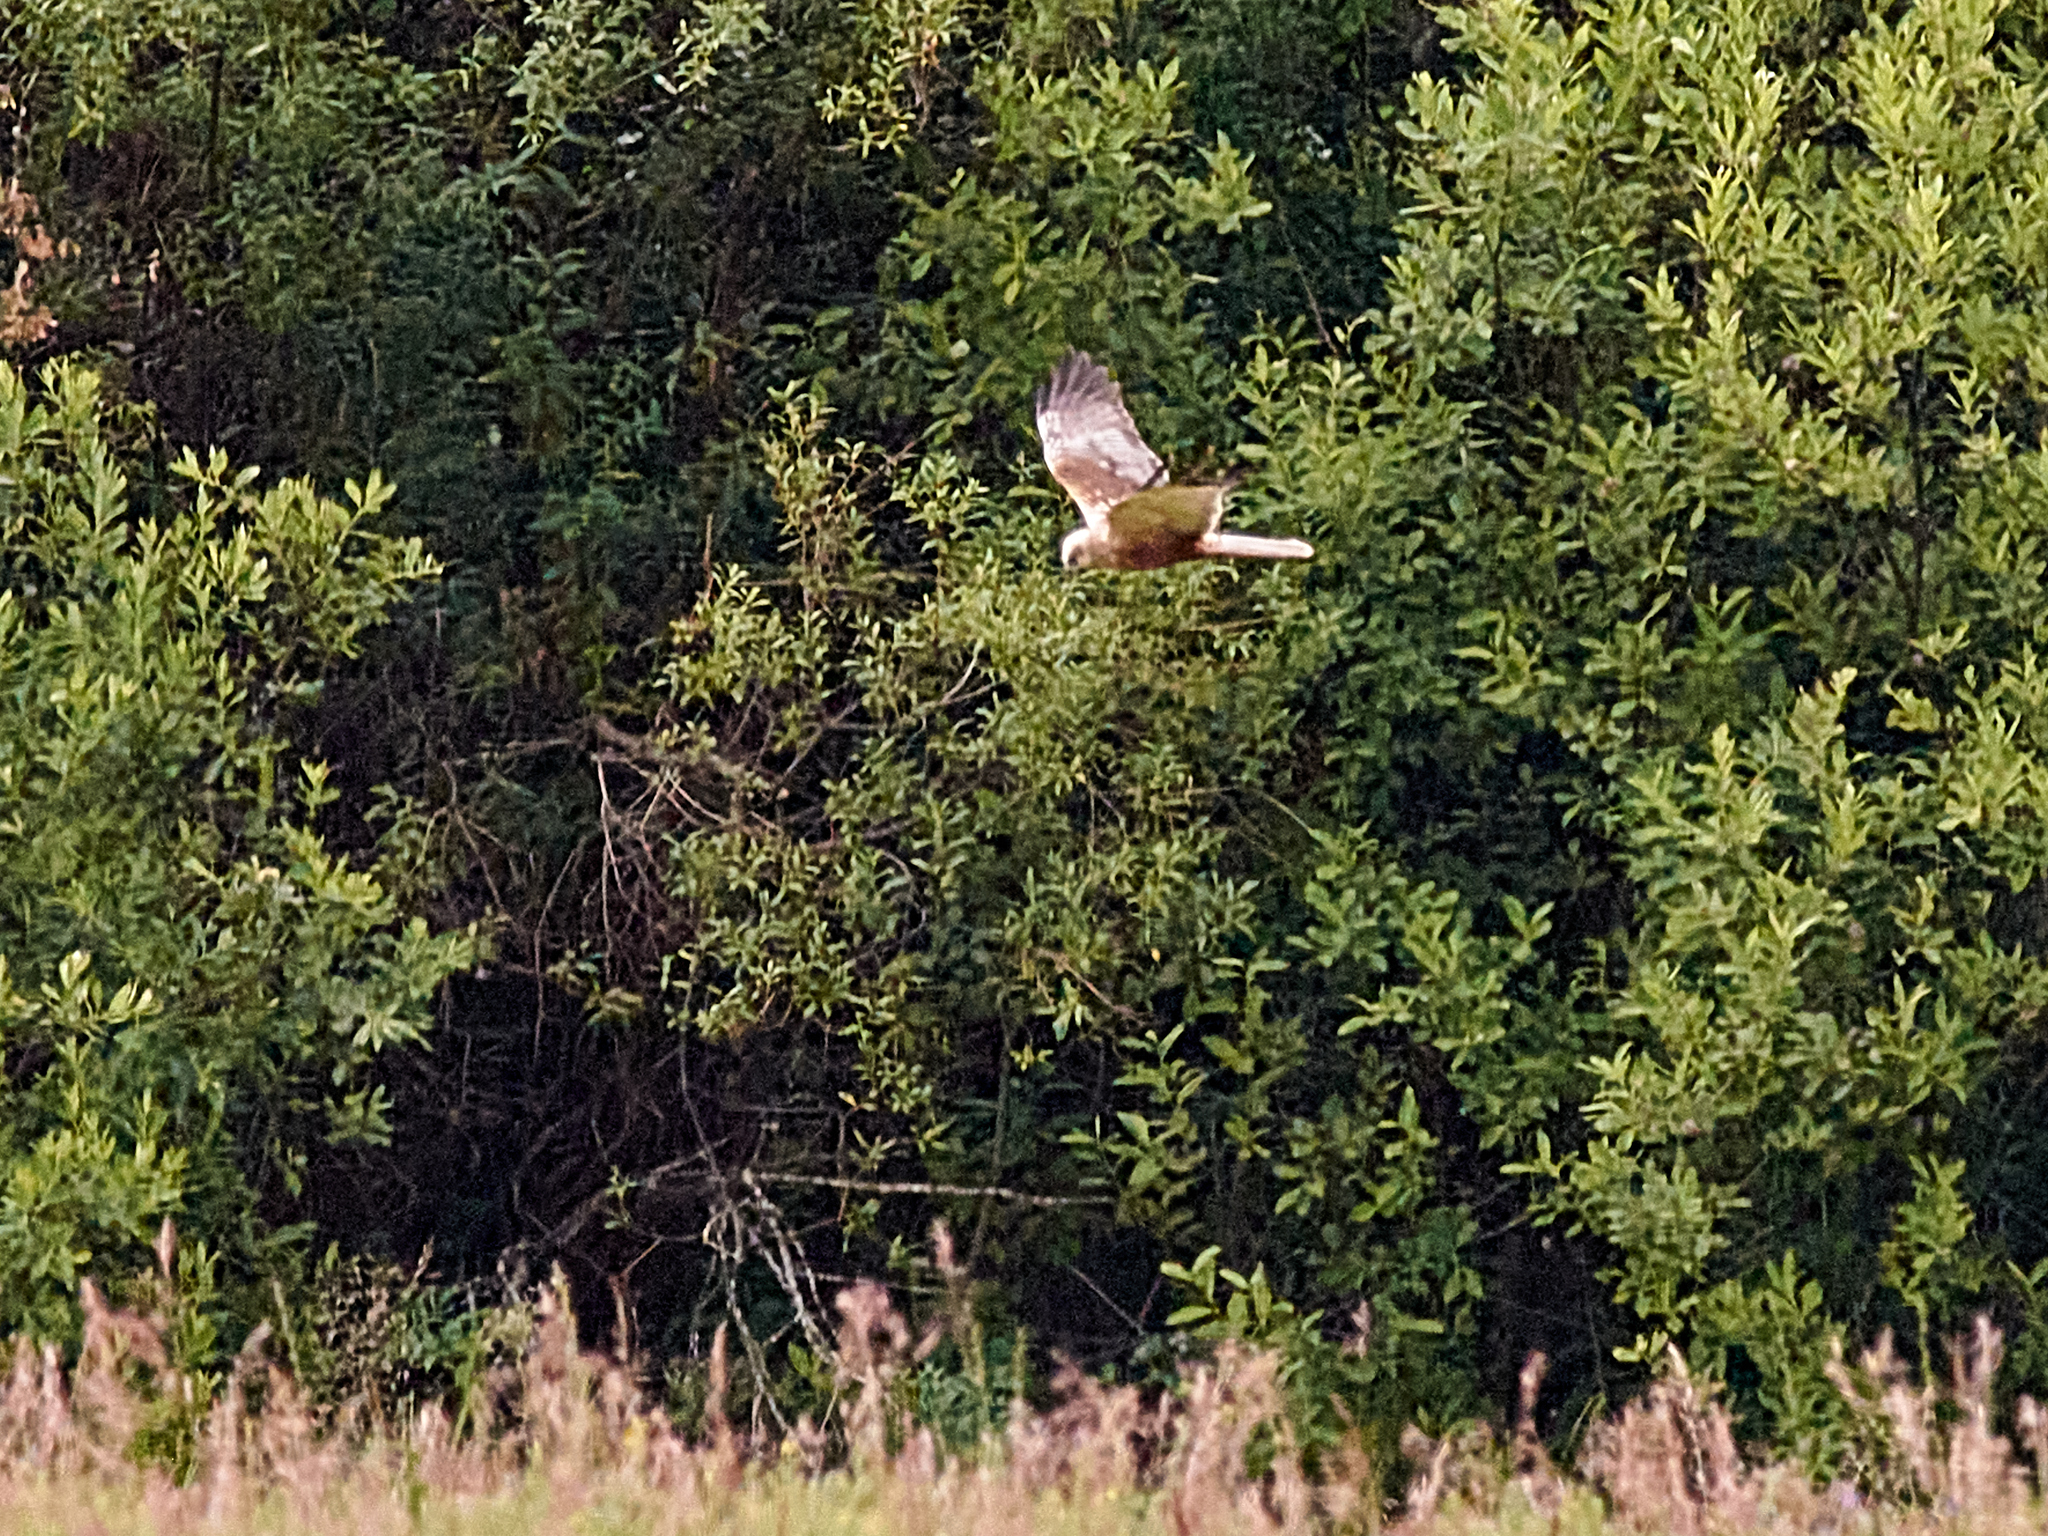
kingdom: Animalia
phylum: Chordata
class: Aves
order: Accipitriformes
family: Accipitridae
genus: Circus
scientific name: Circus aeruginosus
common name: Western marsh harrier
